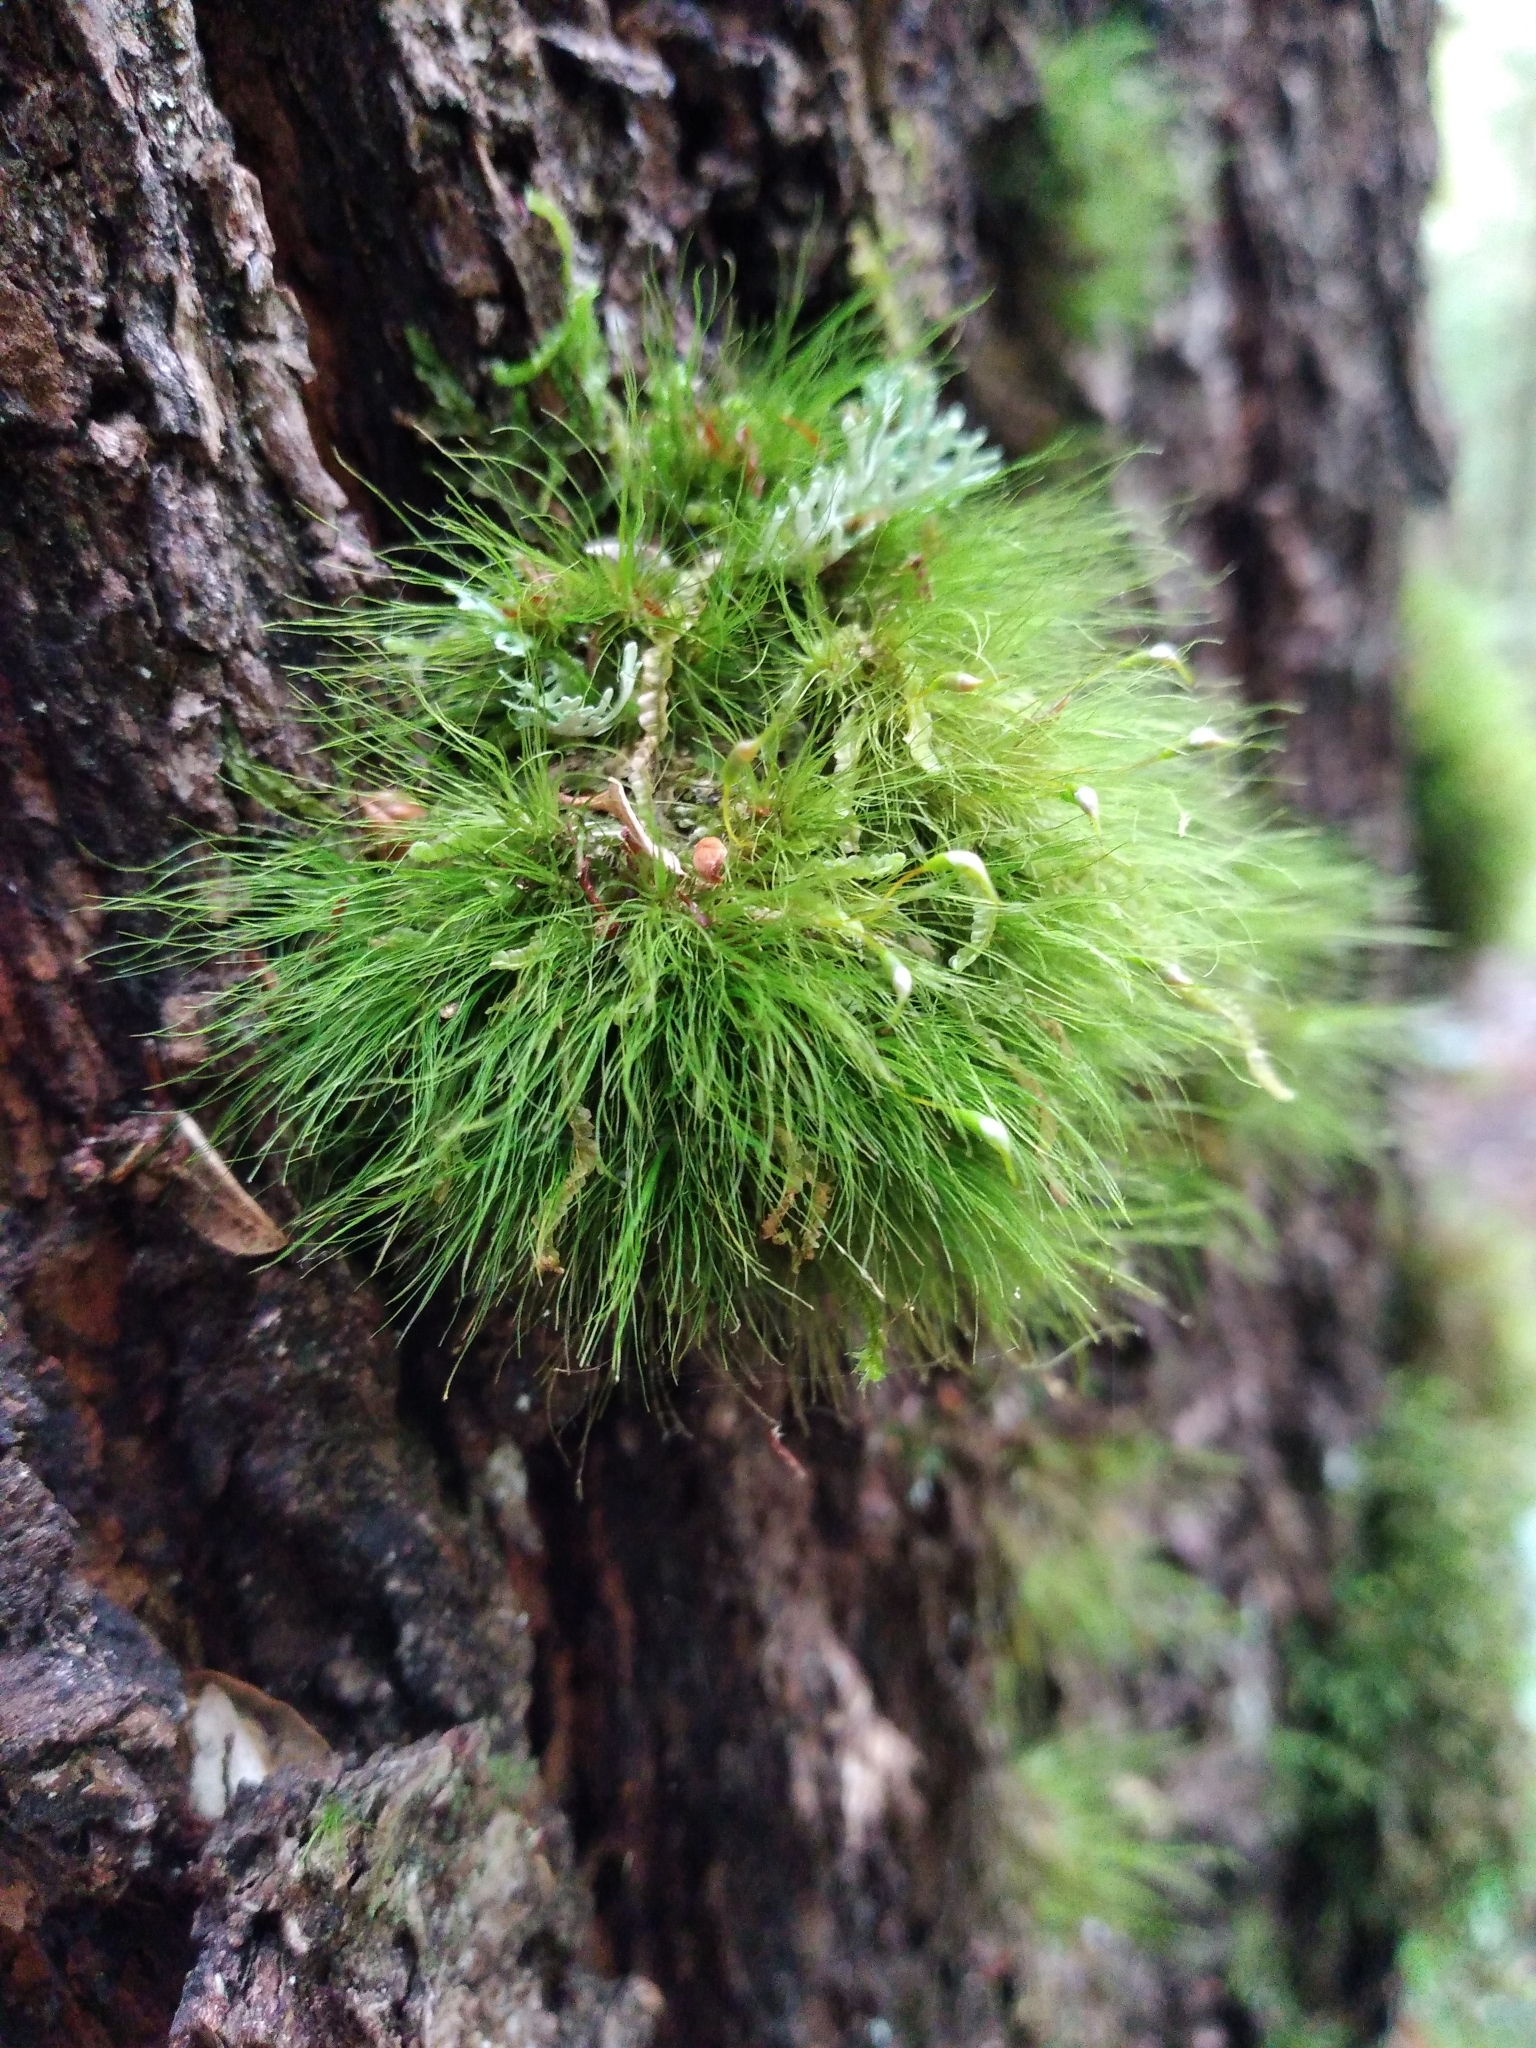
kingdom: Plantae
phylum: Bryophyta
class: Bryopsida
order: Dicranales
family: Dicranaceae
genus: Dicranoloma
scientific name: Dicranoloma menziesii
